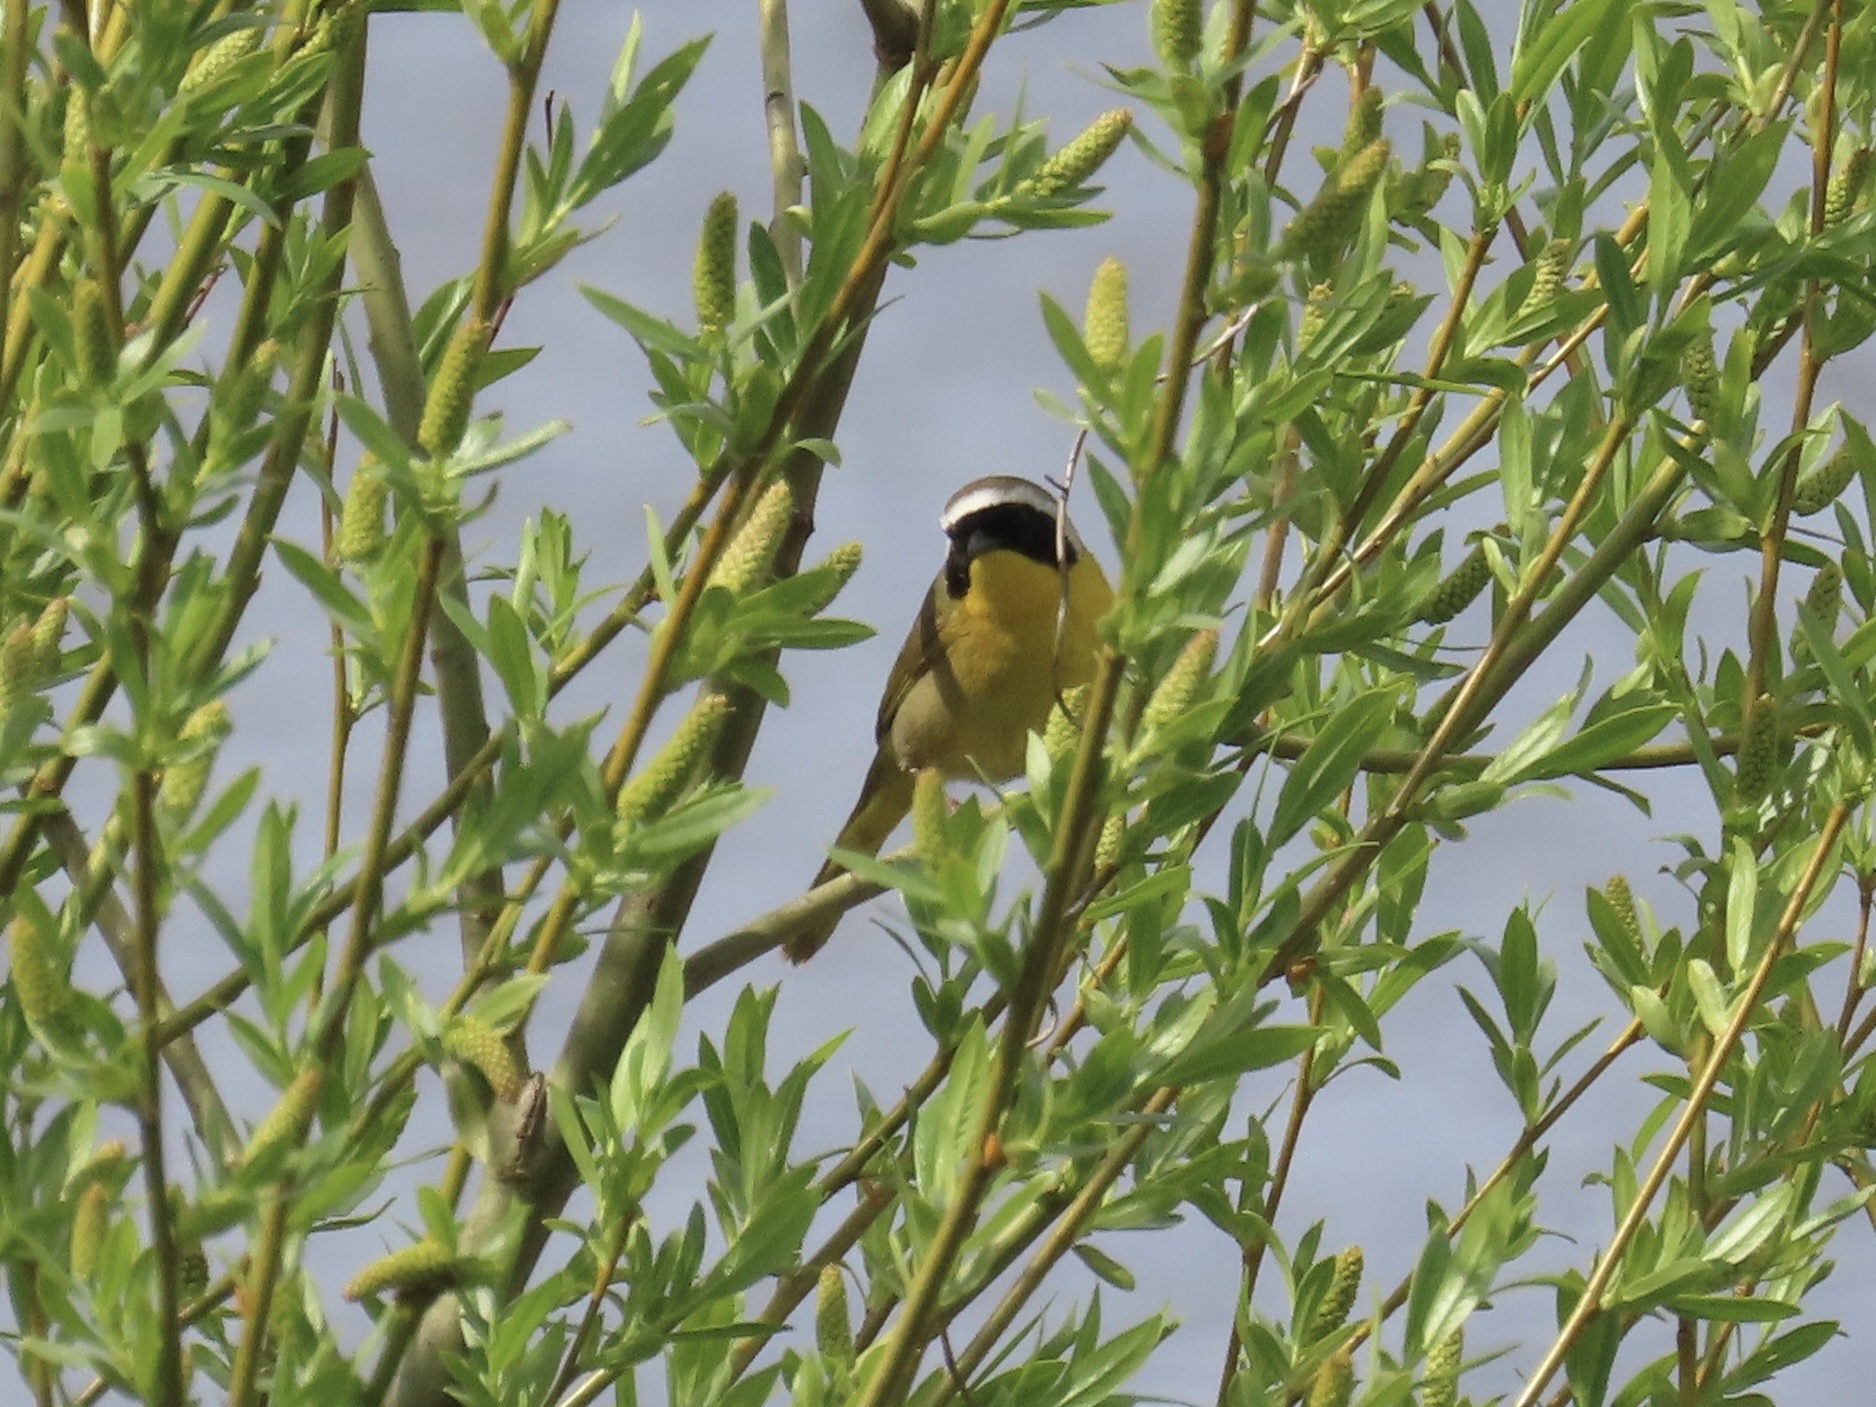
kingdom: Animalia
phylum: Chordata
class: Aves
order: Passeriformes
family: Parulidae
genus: Geothlypis
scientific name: Geothlypis trichas
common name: Common yellowthroat
